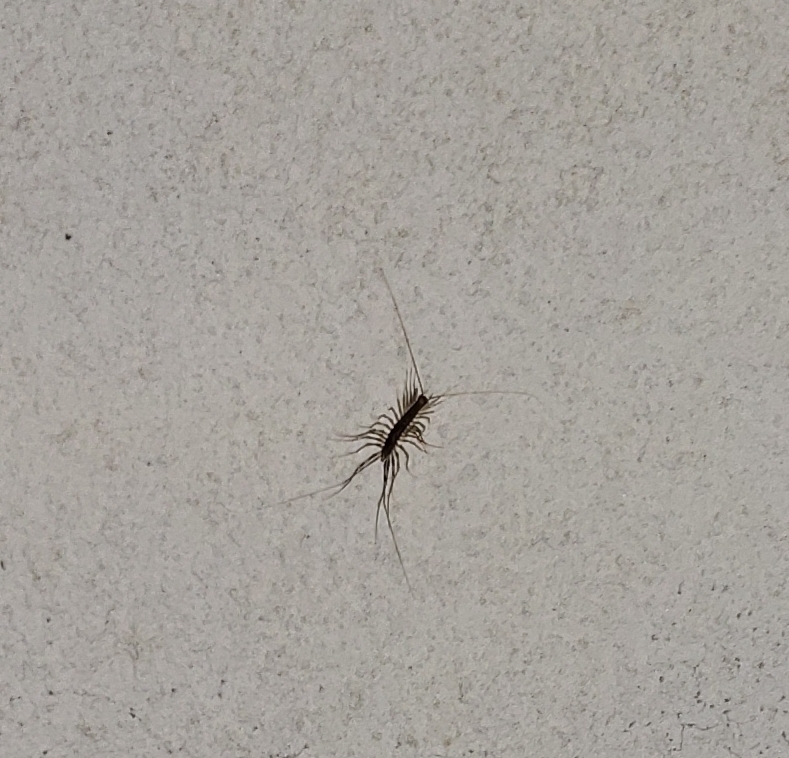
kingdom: Animalia
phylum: Arthropoda
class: Chilopoda
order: Scutigeromorpha
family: Scutigeridae
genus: Scutigera
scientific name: Scutigera coleoptrata
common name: House centipede
